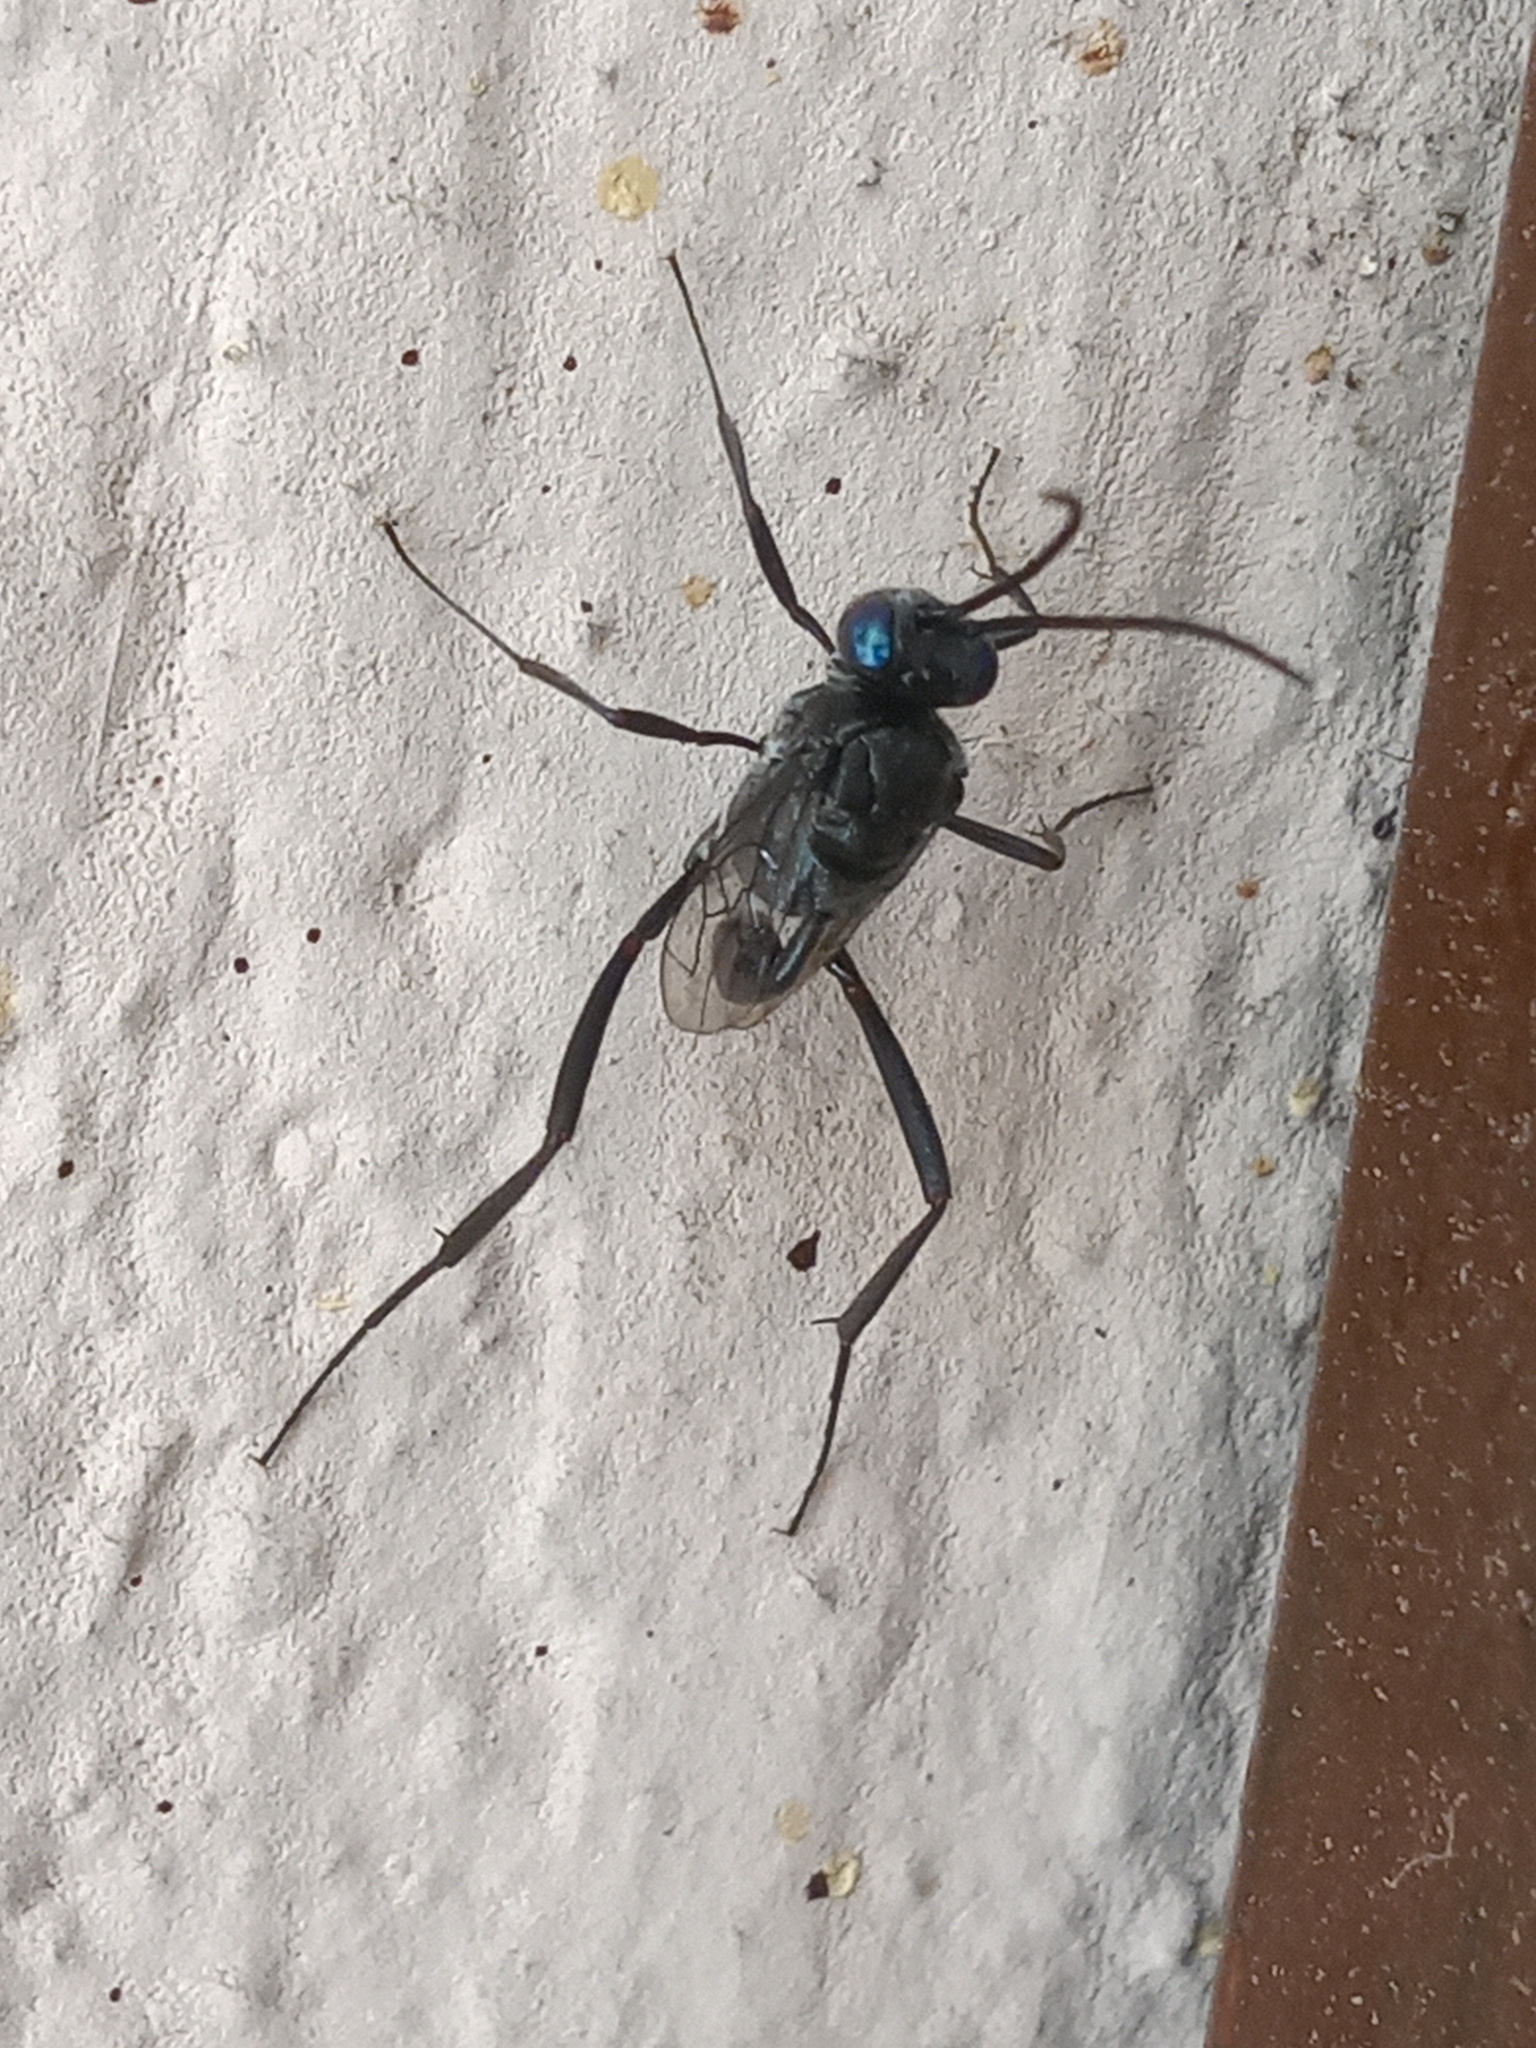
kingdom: Animalia
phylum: Arthropoda
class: Insecta
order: Hymenoptera
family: Evaniidae
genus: Evania
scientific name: Evania appendigaster
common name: Ensign wasp
